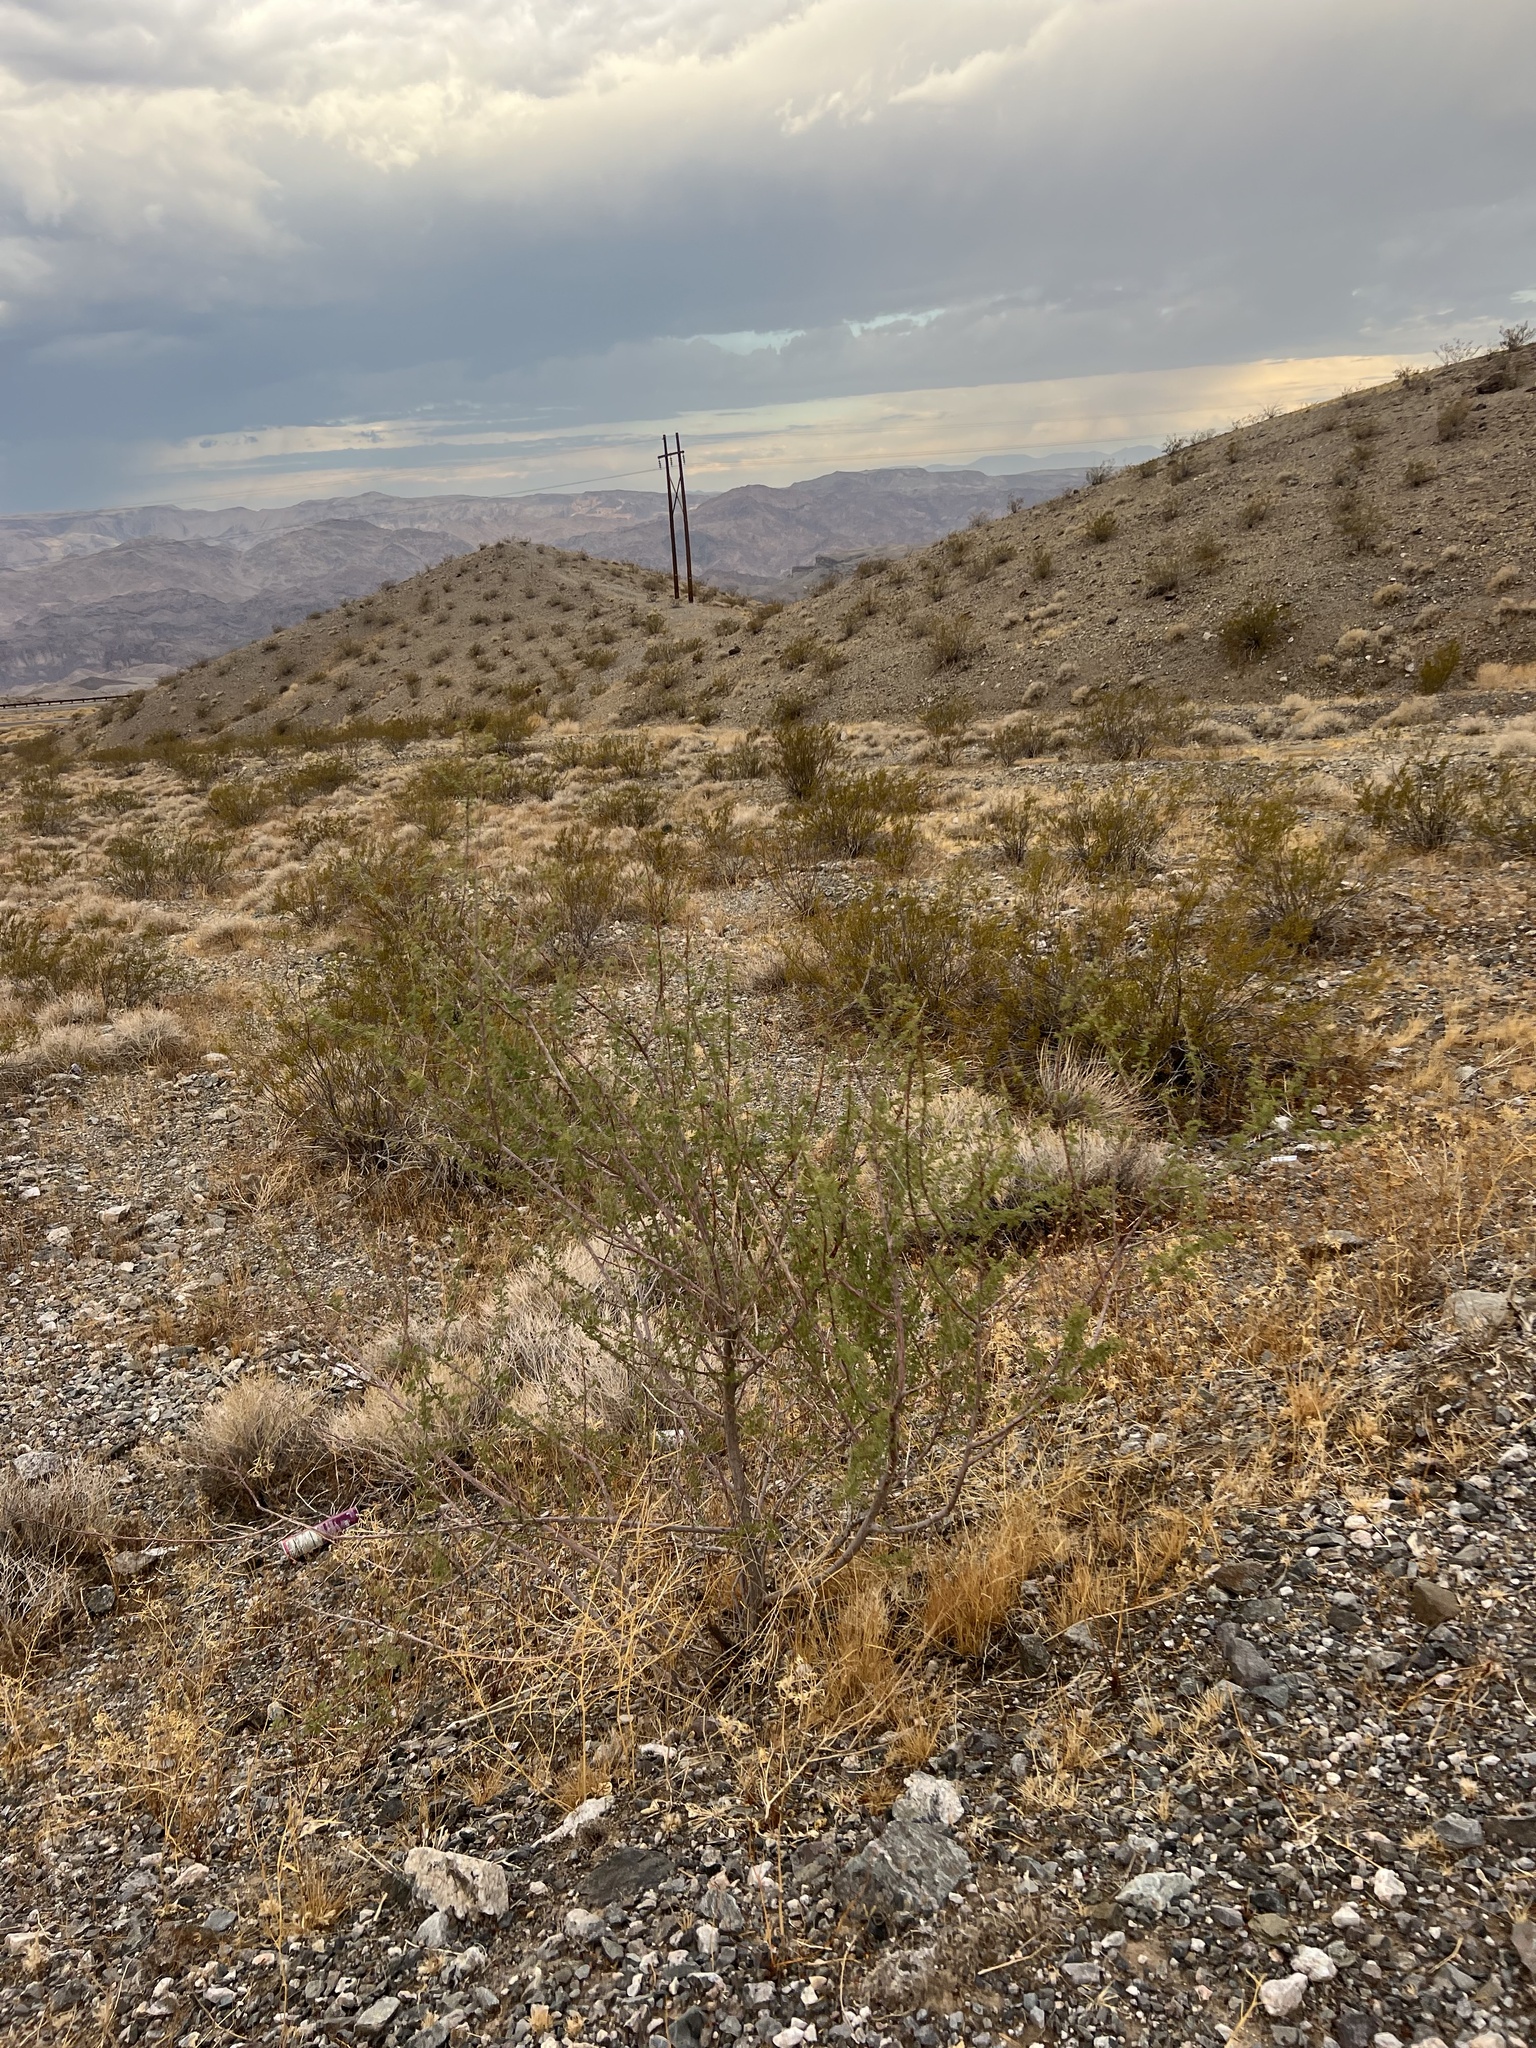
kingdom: Plantae
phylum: Tracheophyta
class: Magnoliopsida
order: Fabales
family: Fabaceae
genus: Senegalia
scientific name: Senegalia greggii
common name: Texas-mimosa
